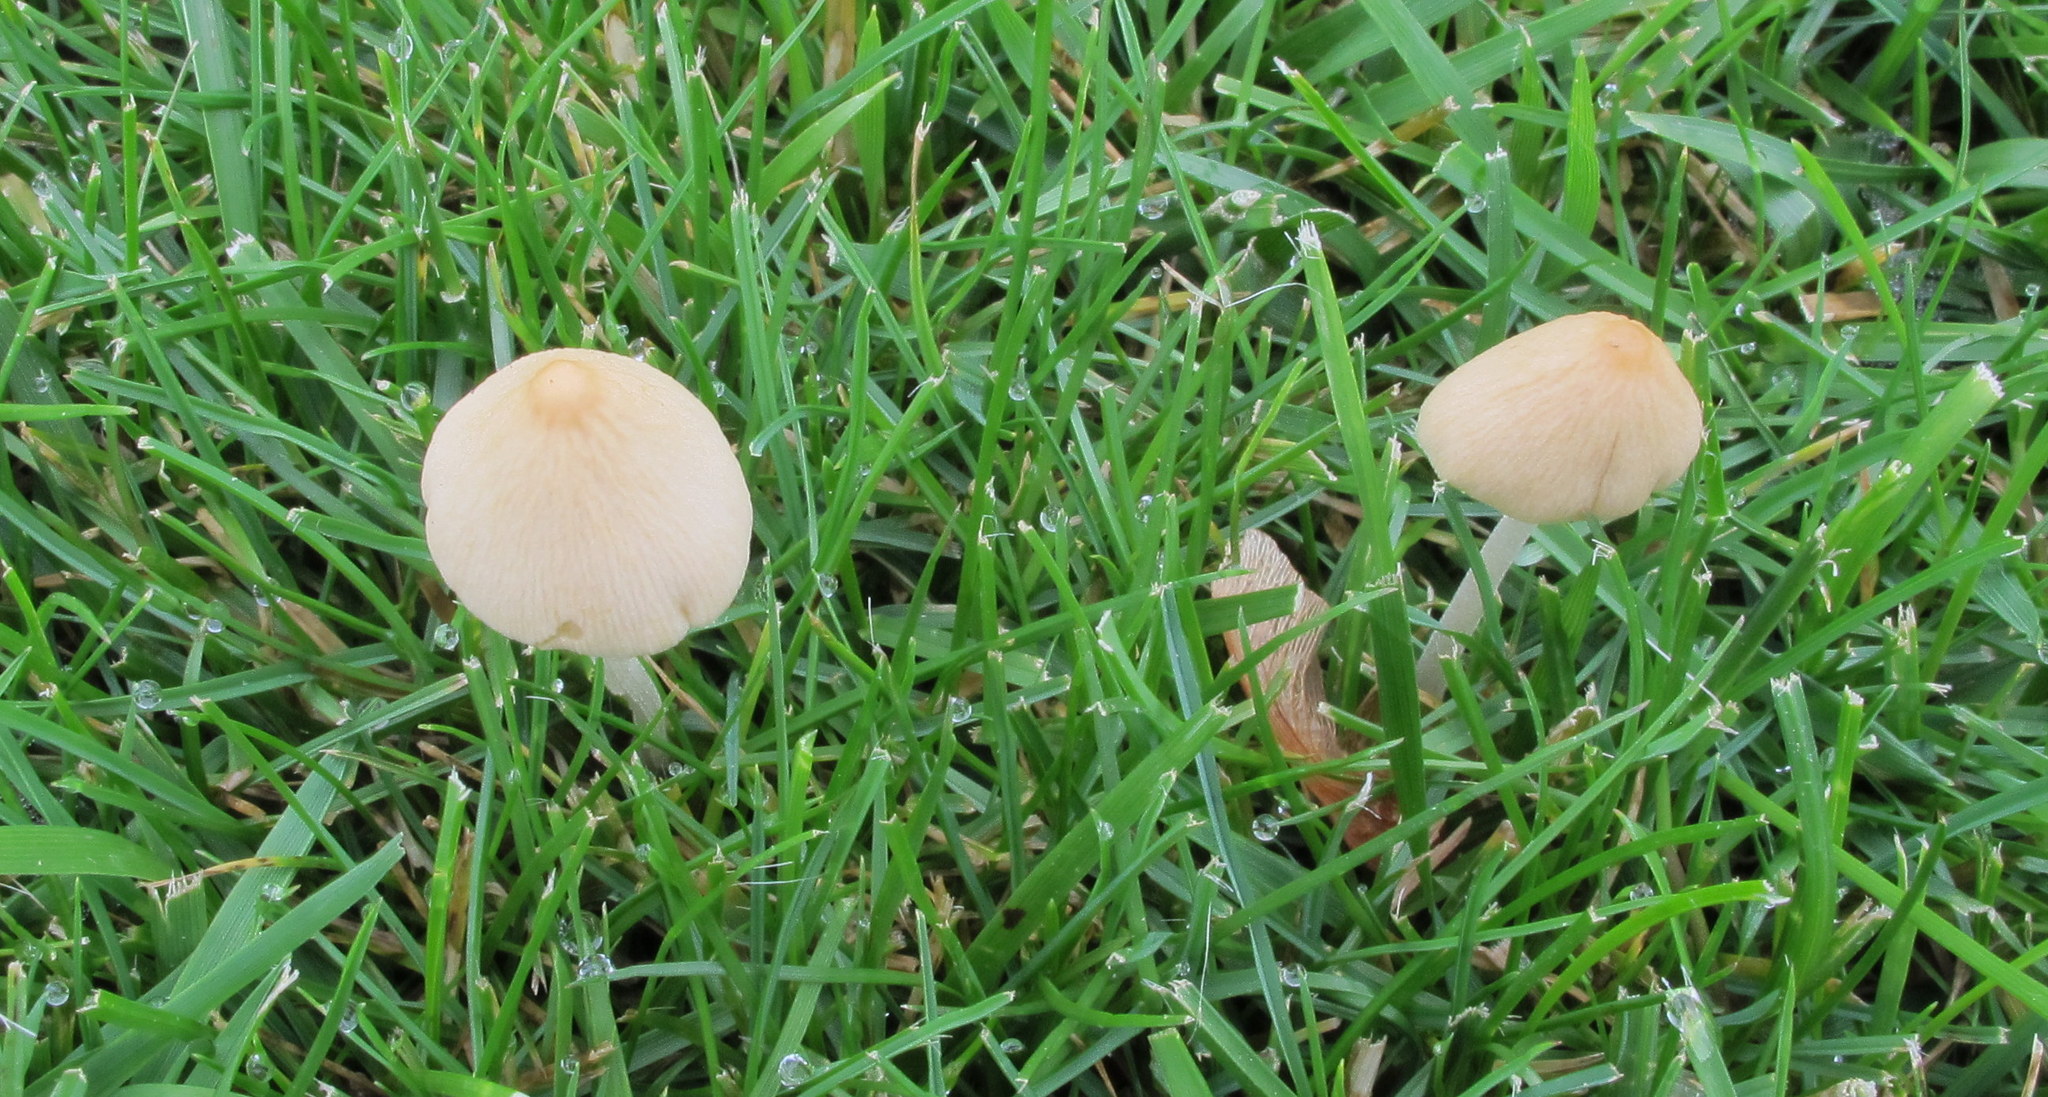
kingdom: Fungi
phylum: Basidiomycota
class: Agaricomycetes
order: Agaricales
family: Bolbitiaceae
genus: Conocybe
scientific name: Conocybe apala
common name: Milky conecap
